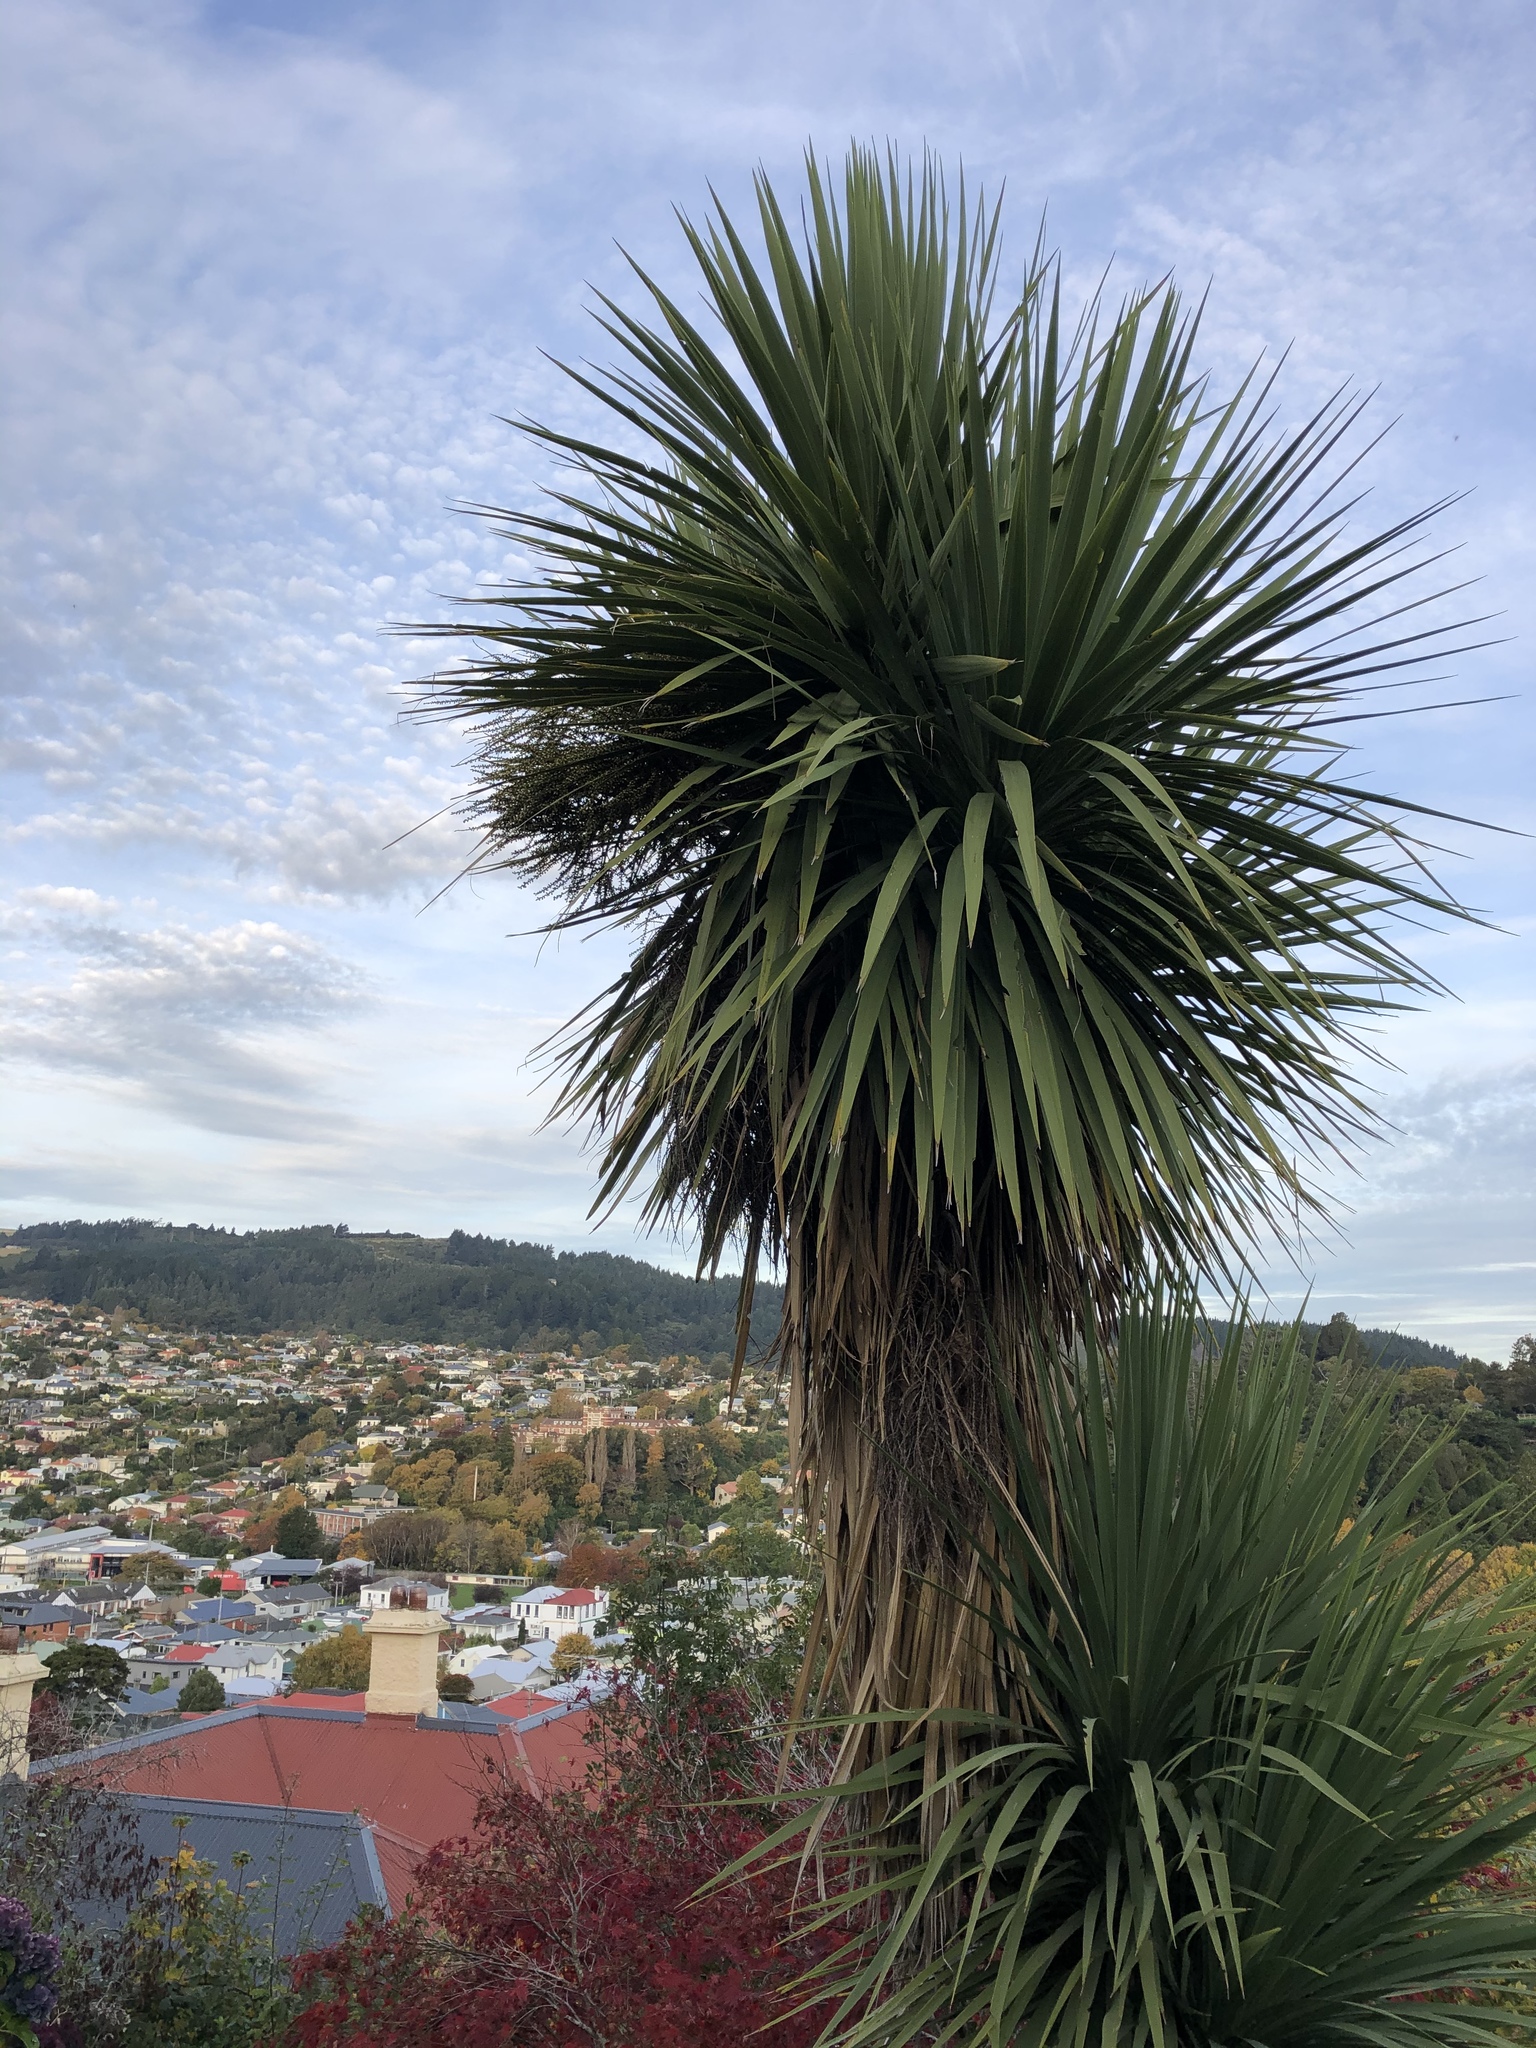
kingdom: Plantae
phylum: Tracheophyta
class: Liliopsida
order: Asparagales
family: Asparagaceae
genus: Cordyline
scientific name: Cordyline australis
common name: Cabbage-palm
